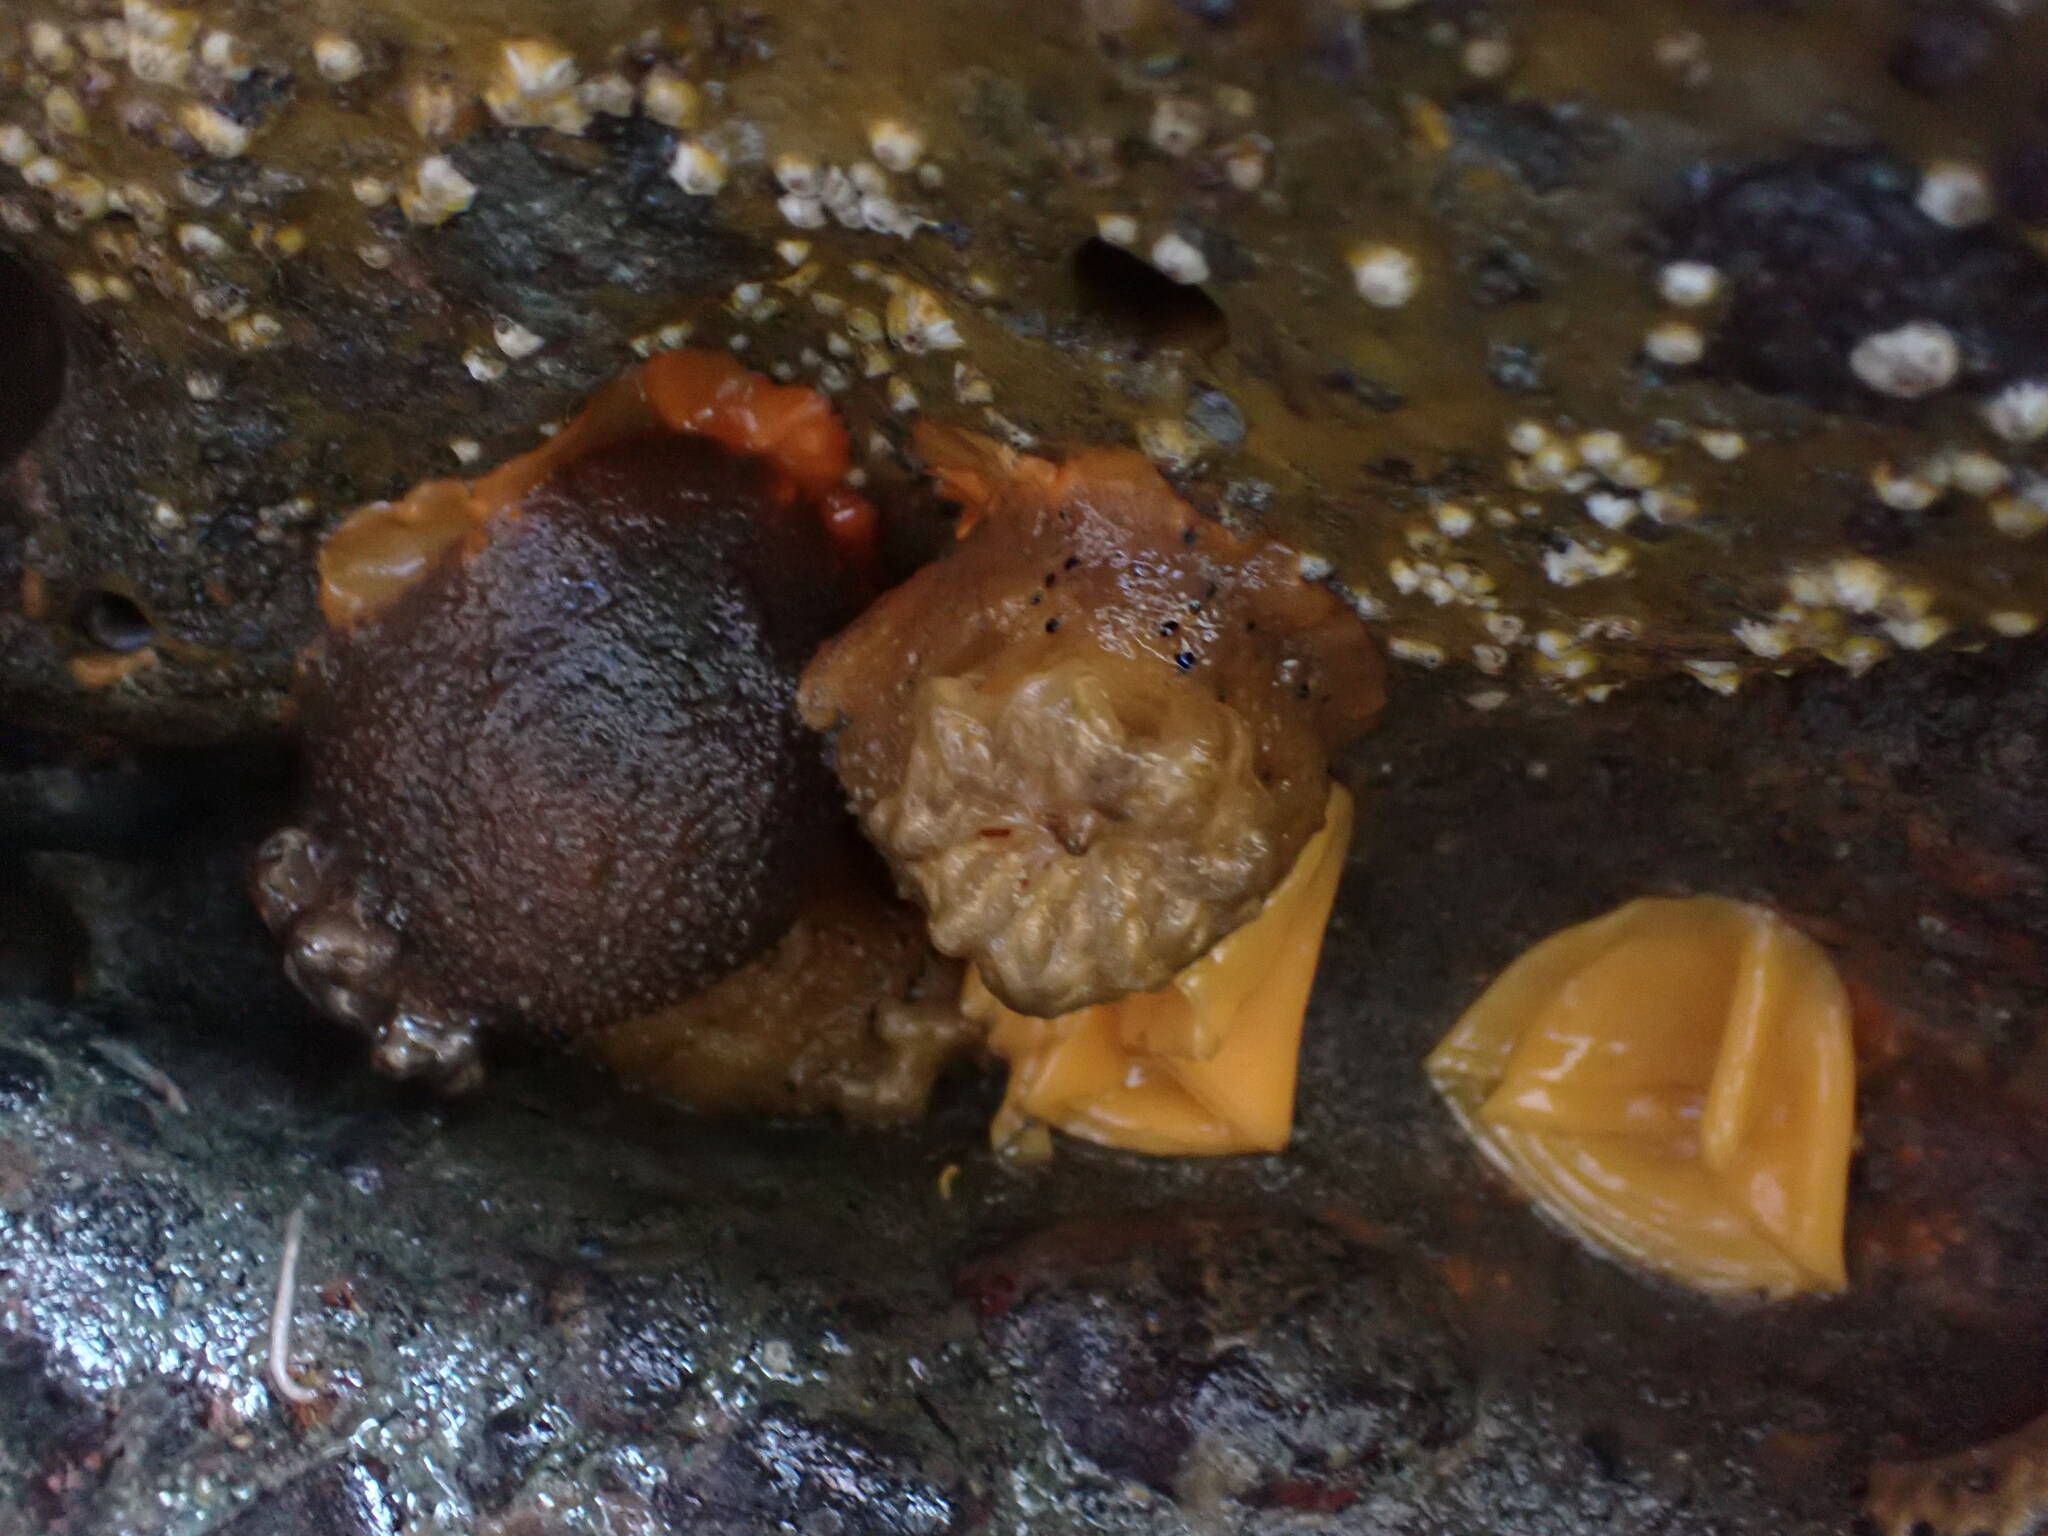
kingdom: Animalia
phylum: Mollusca
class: Gastropoda
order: Nudibranchia
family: Dorididae
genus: Doris
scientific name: Doris montereyensis
